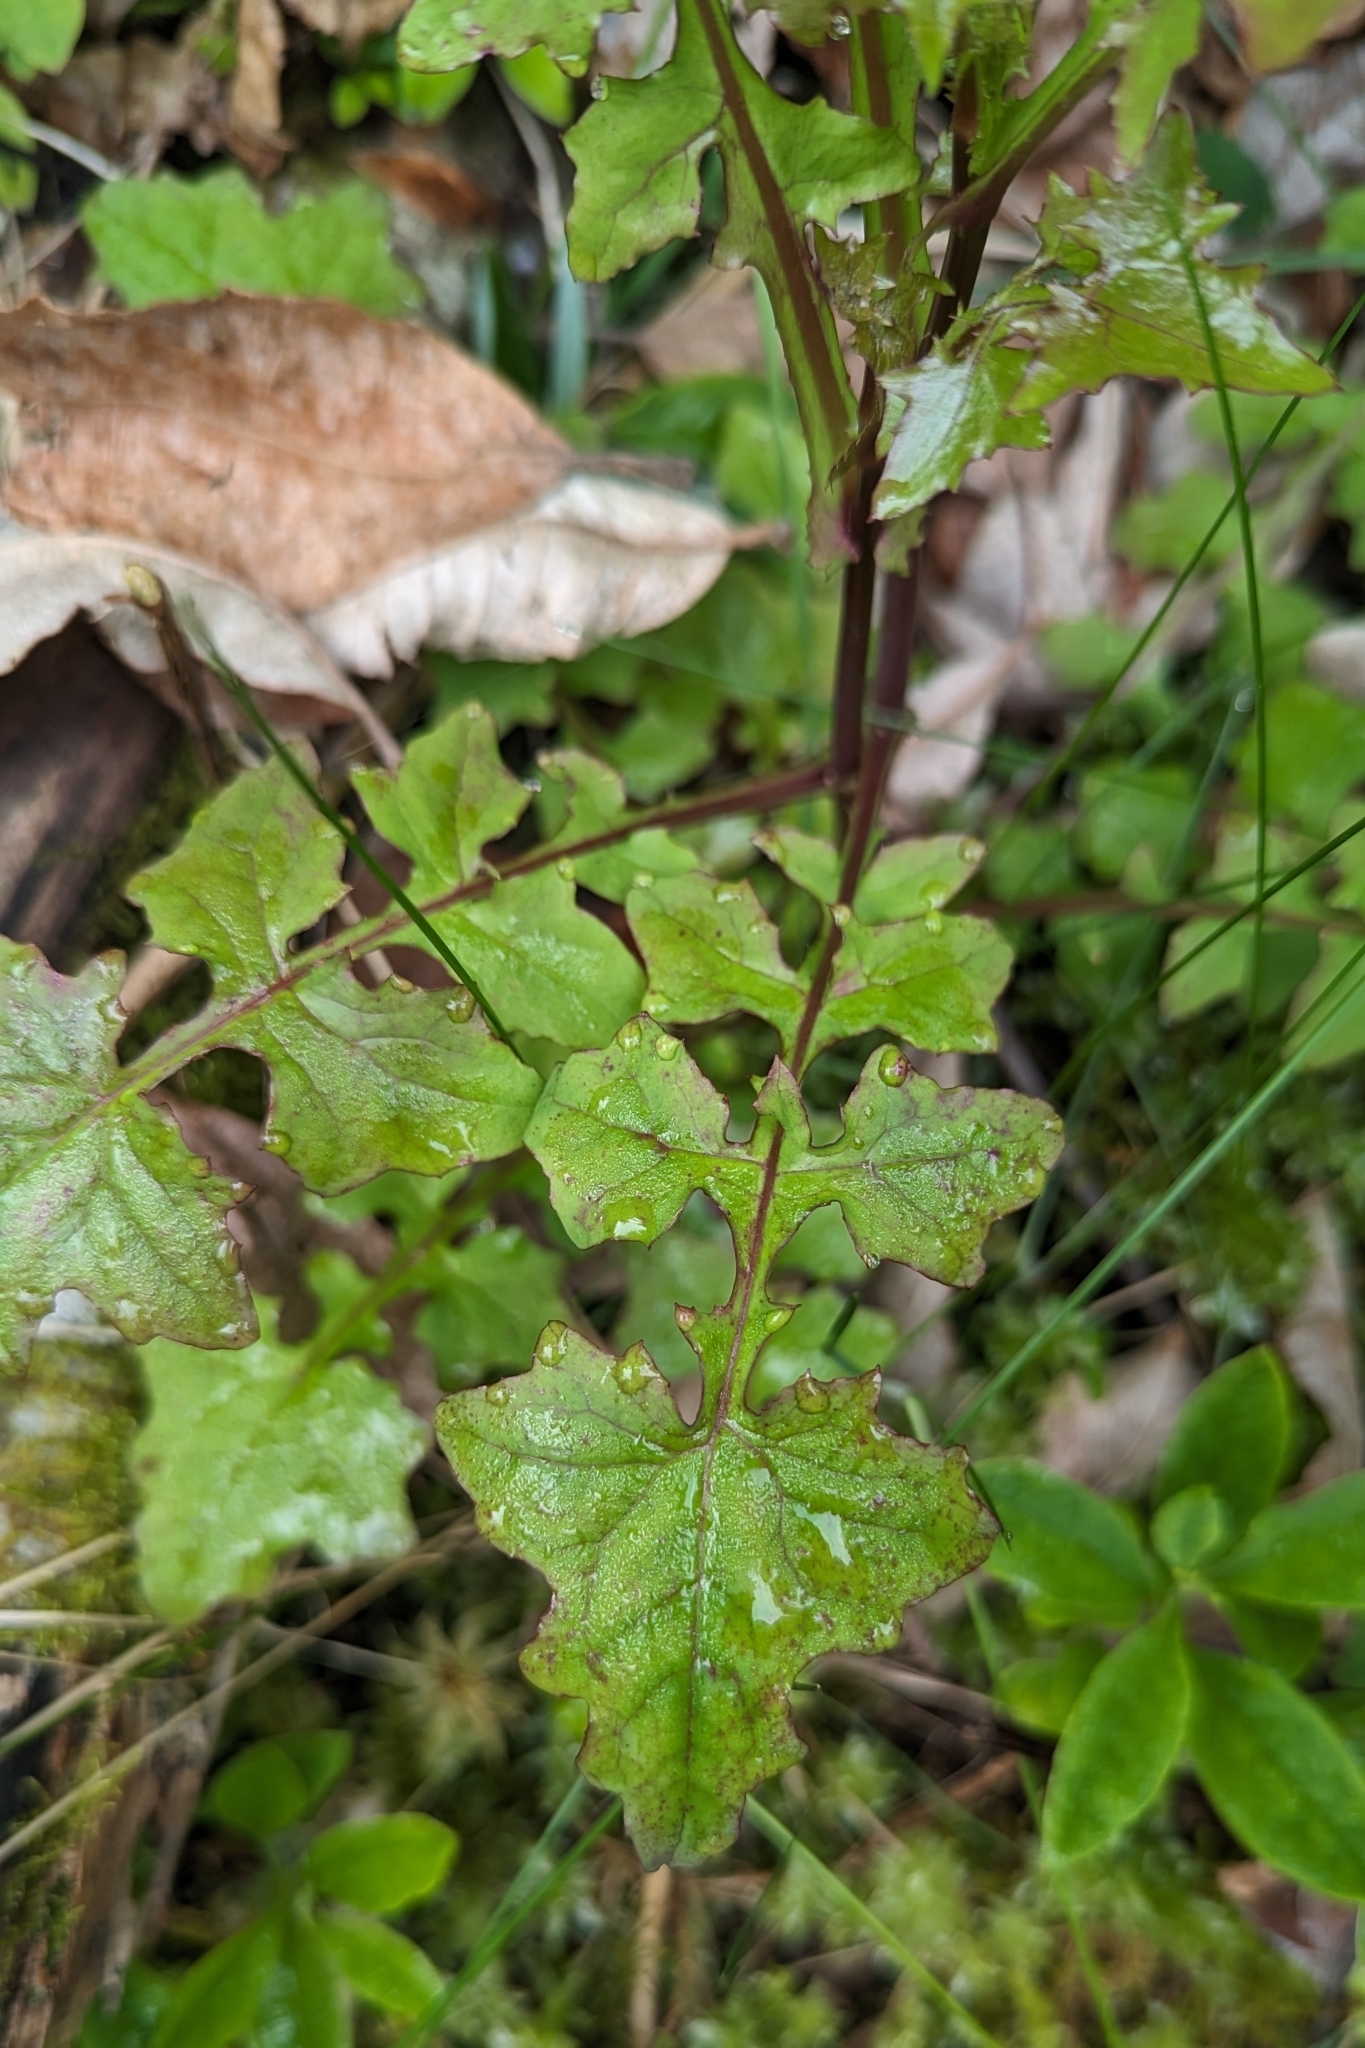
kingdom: Plantae
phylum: Tracheophyta
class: Magnoliopsida
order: Asterales
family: Asteraceae
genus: Mycelis
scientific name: Mycelis muralis
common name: Wall lettuce
